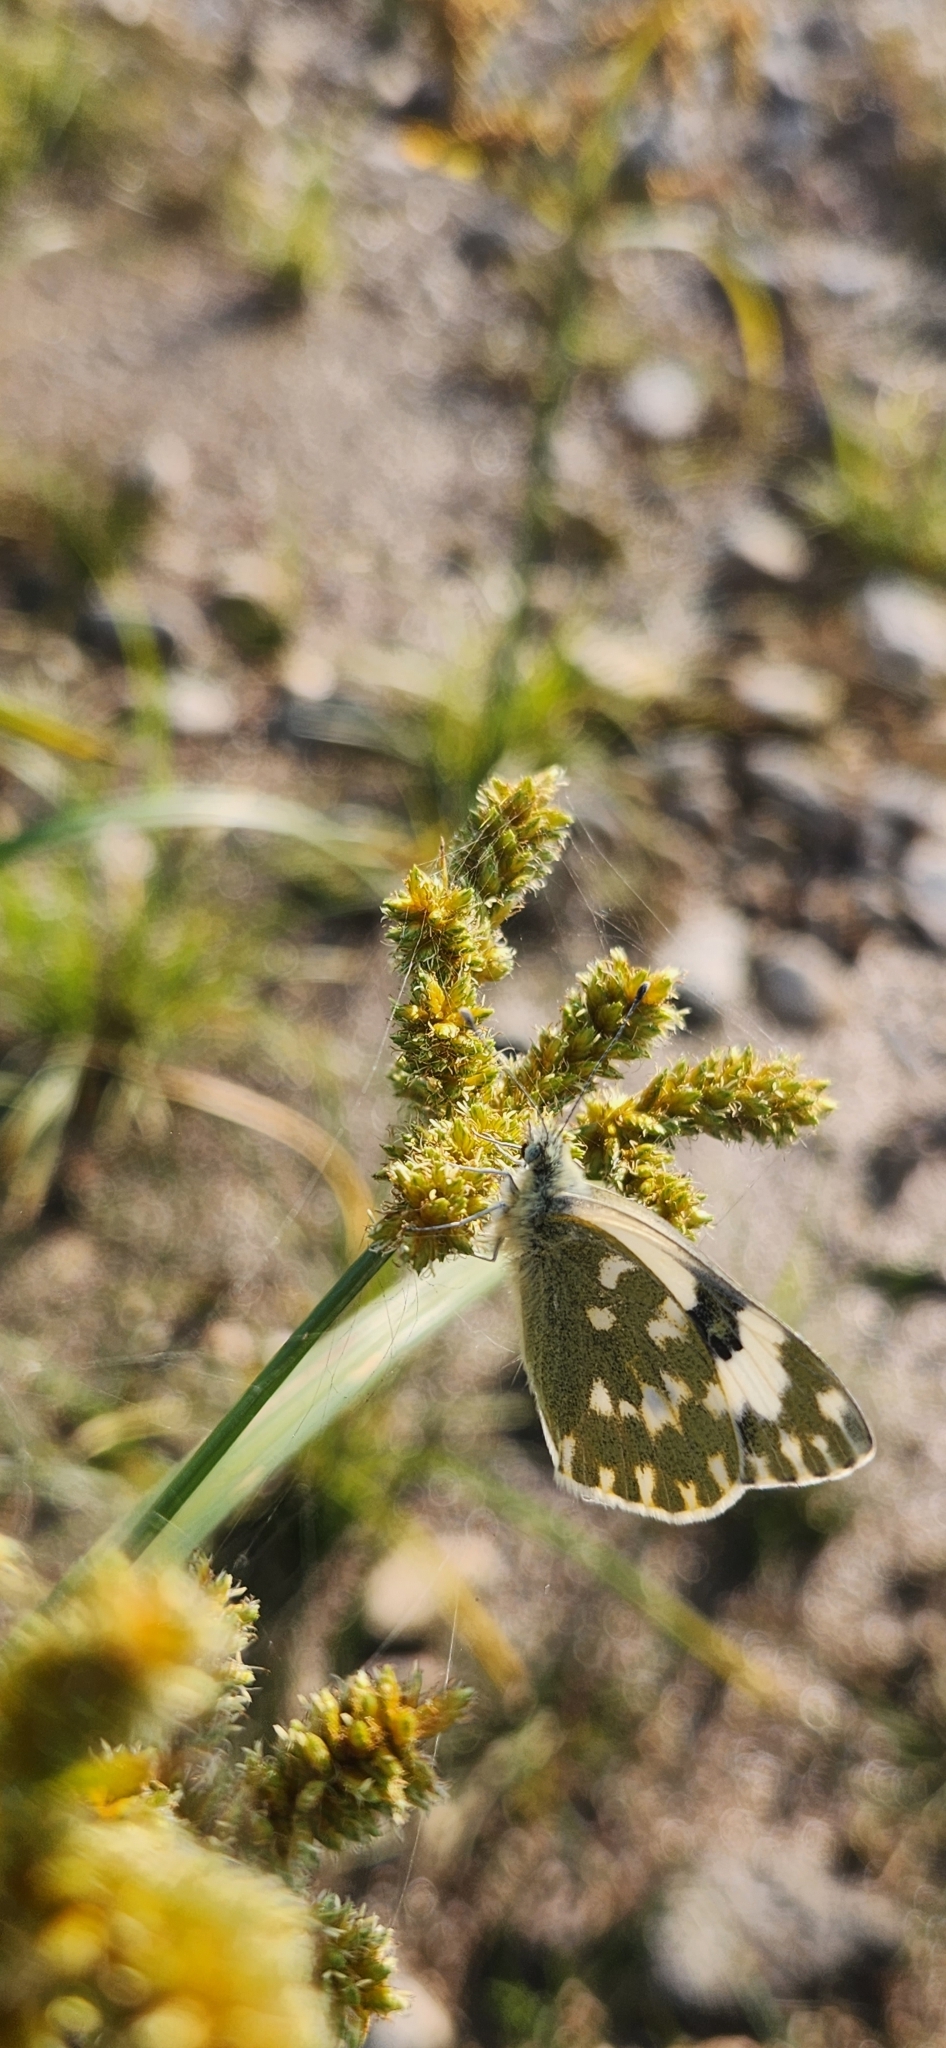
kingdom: Animalia
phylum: Arthropoda
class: Insecta
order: Lepidoptera
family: Pieridae
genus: Pontia
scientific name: Pontia daplidice
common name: Bath white
